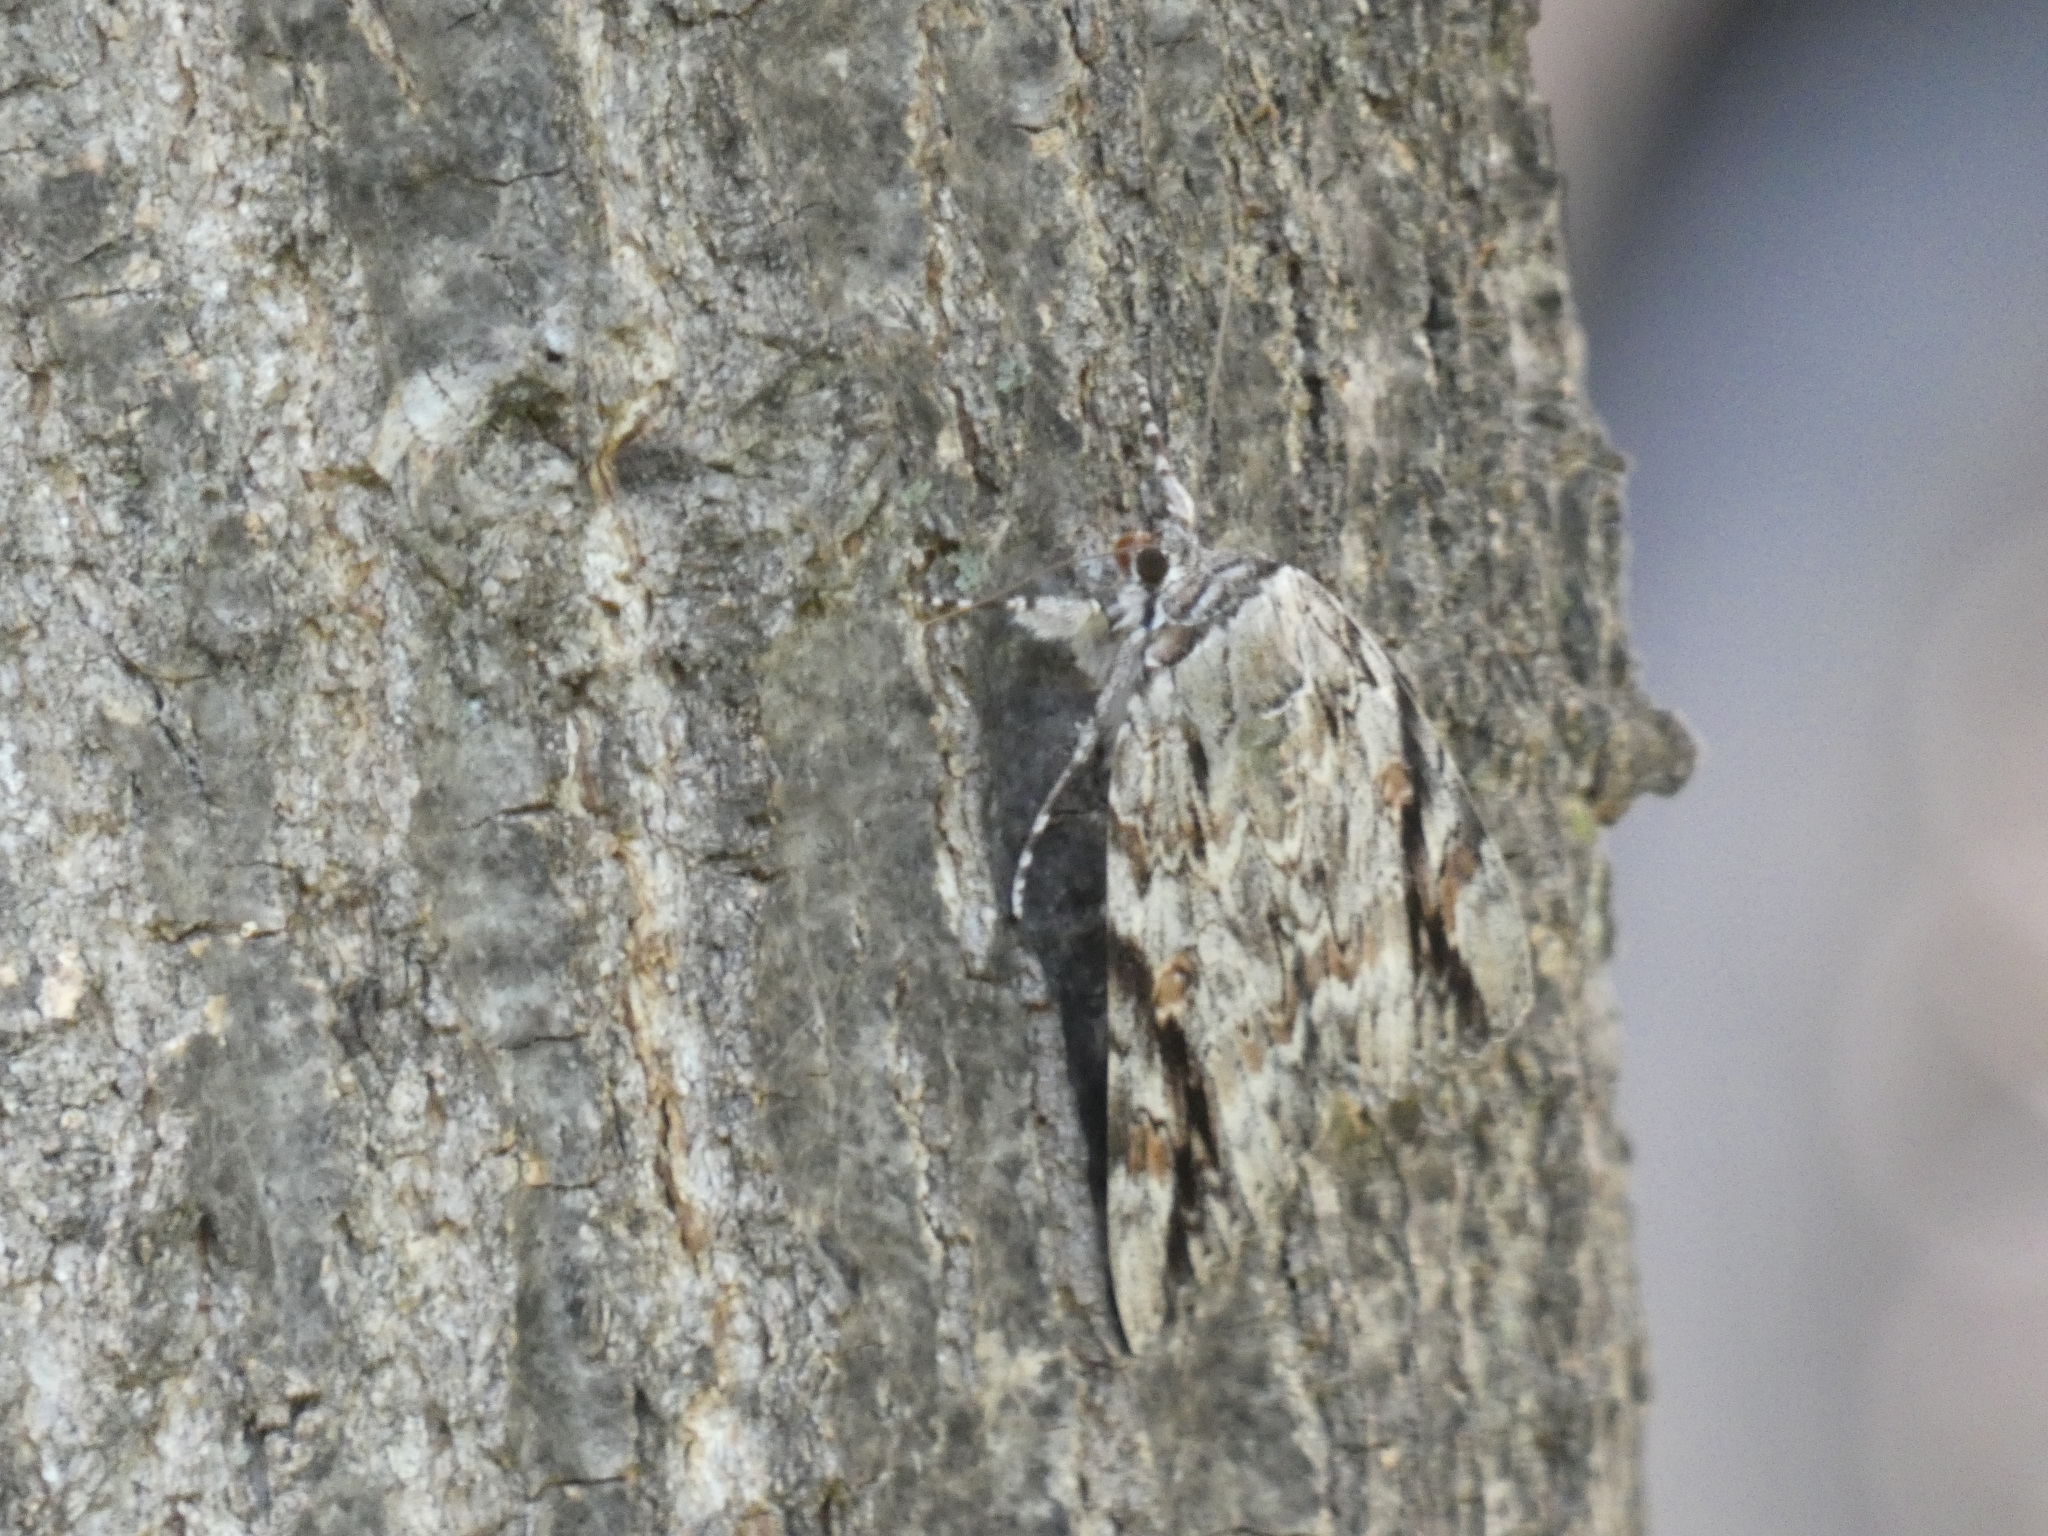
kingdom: Animalia
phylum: Arthropoda
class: Insecta
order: Lepidoptera
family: Erebidae
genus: Catocala
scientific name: Catocala maestosa
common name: Sad underwing
